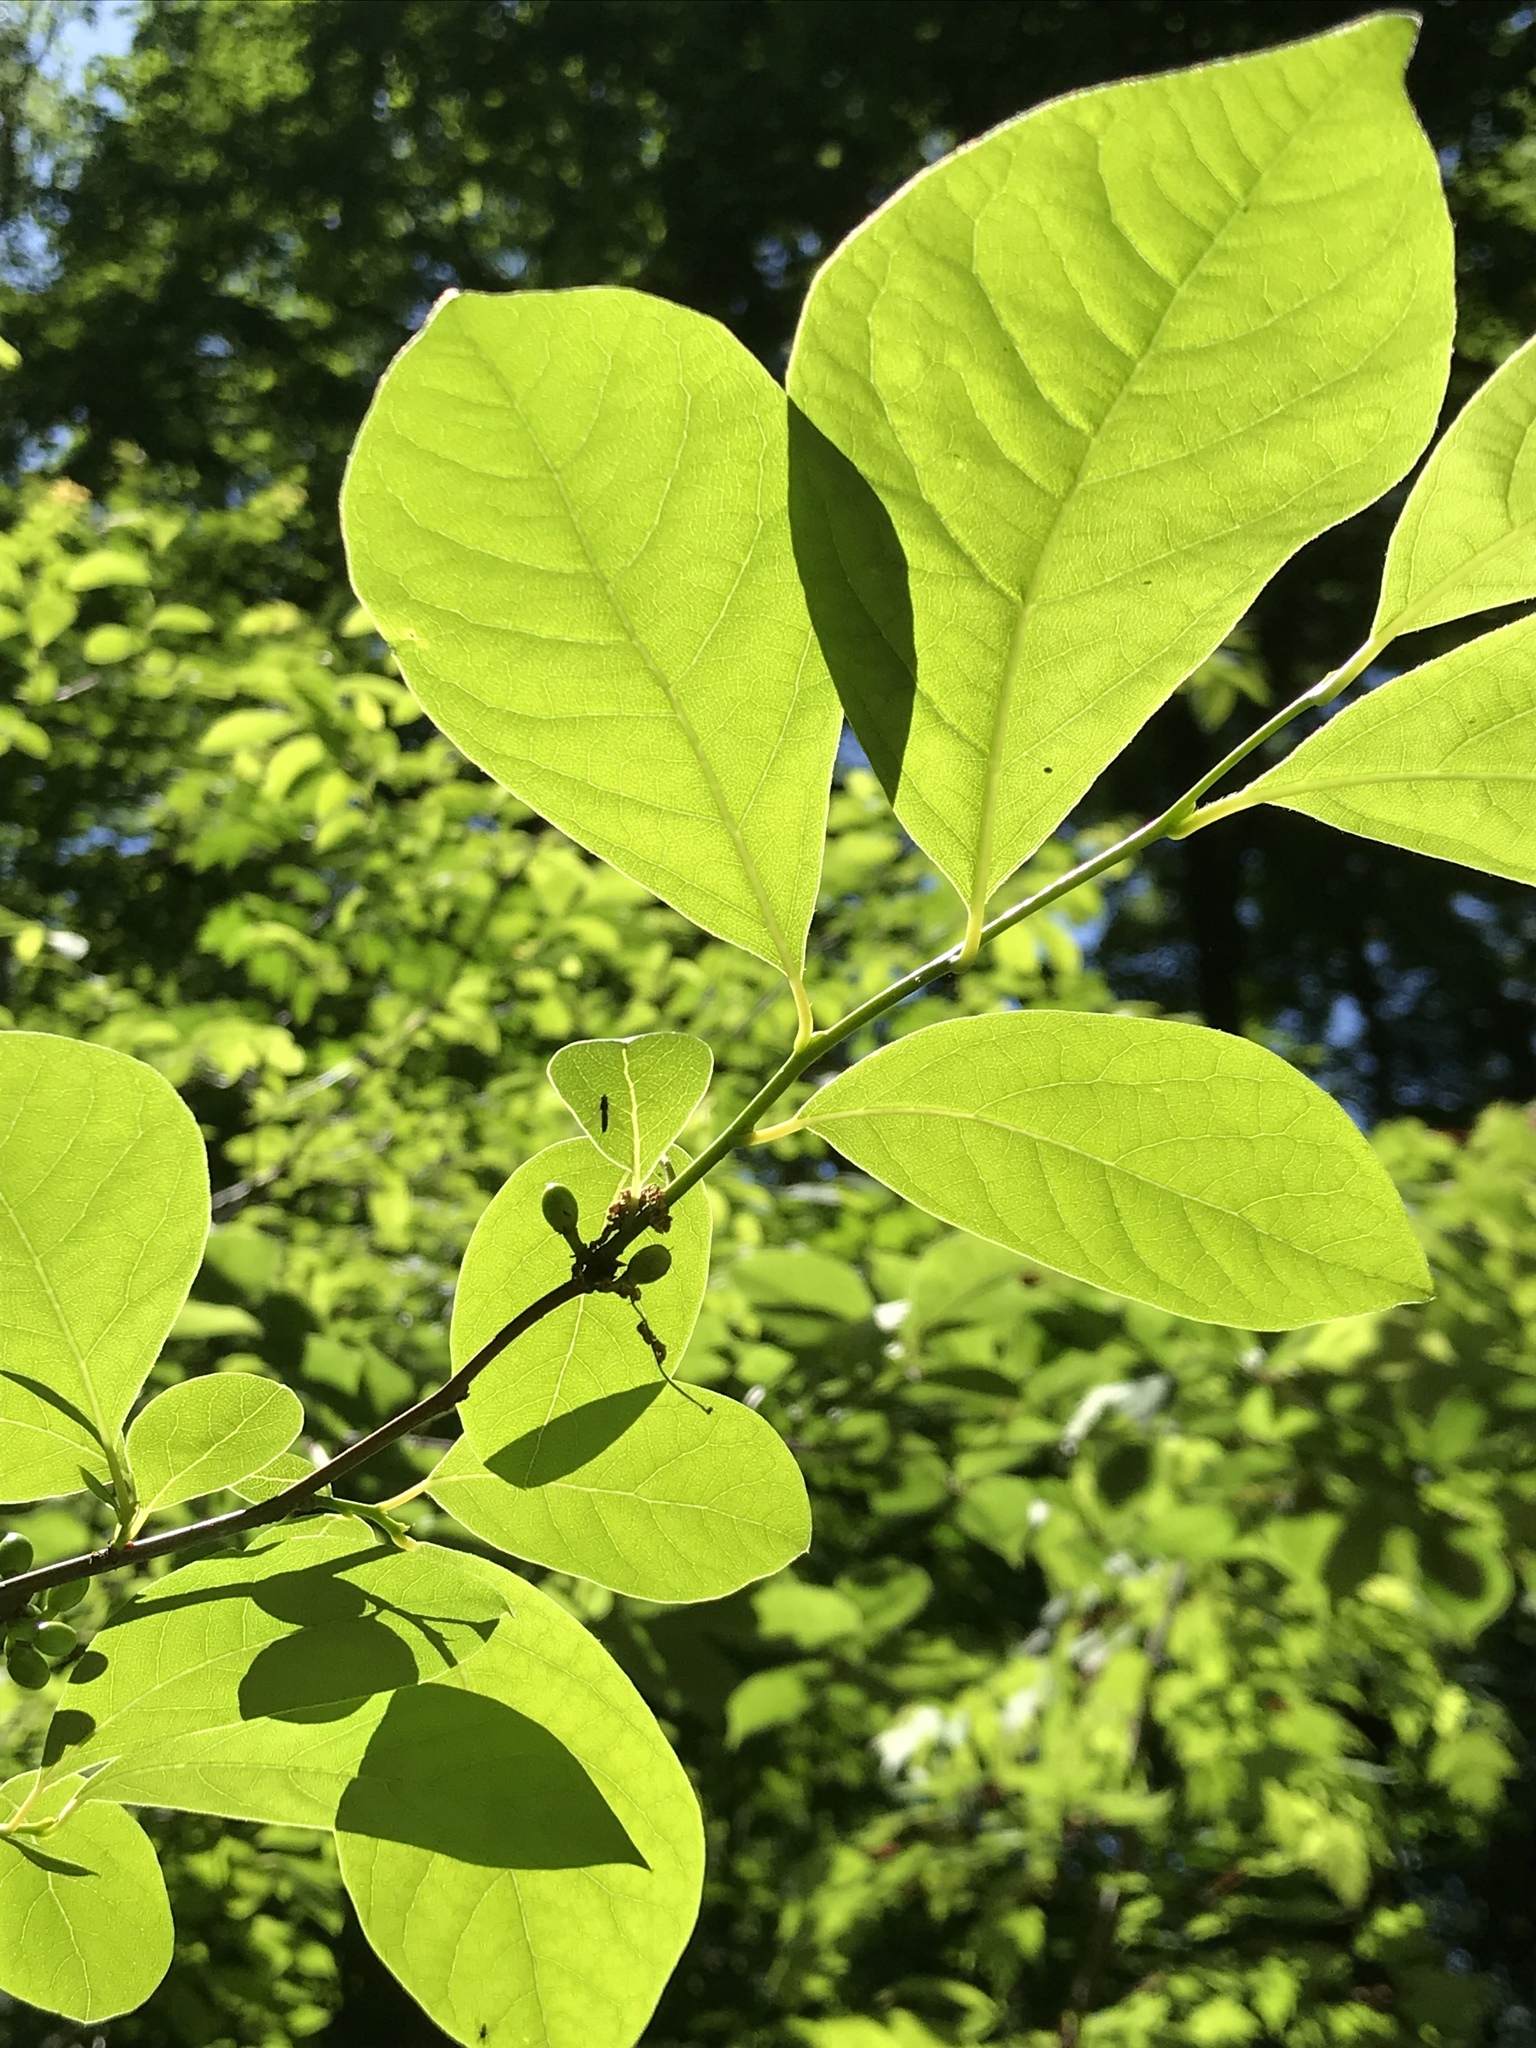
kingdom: Plantae
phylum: Tracheophyta
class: Magnoliopsida
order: Laurales
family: Lauraceae
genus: Lindera
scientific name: Lindera benzoin
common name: Spicebush
